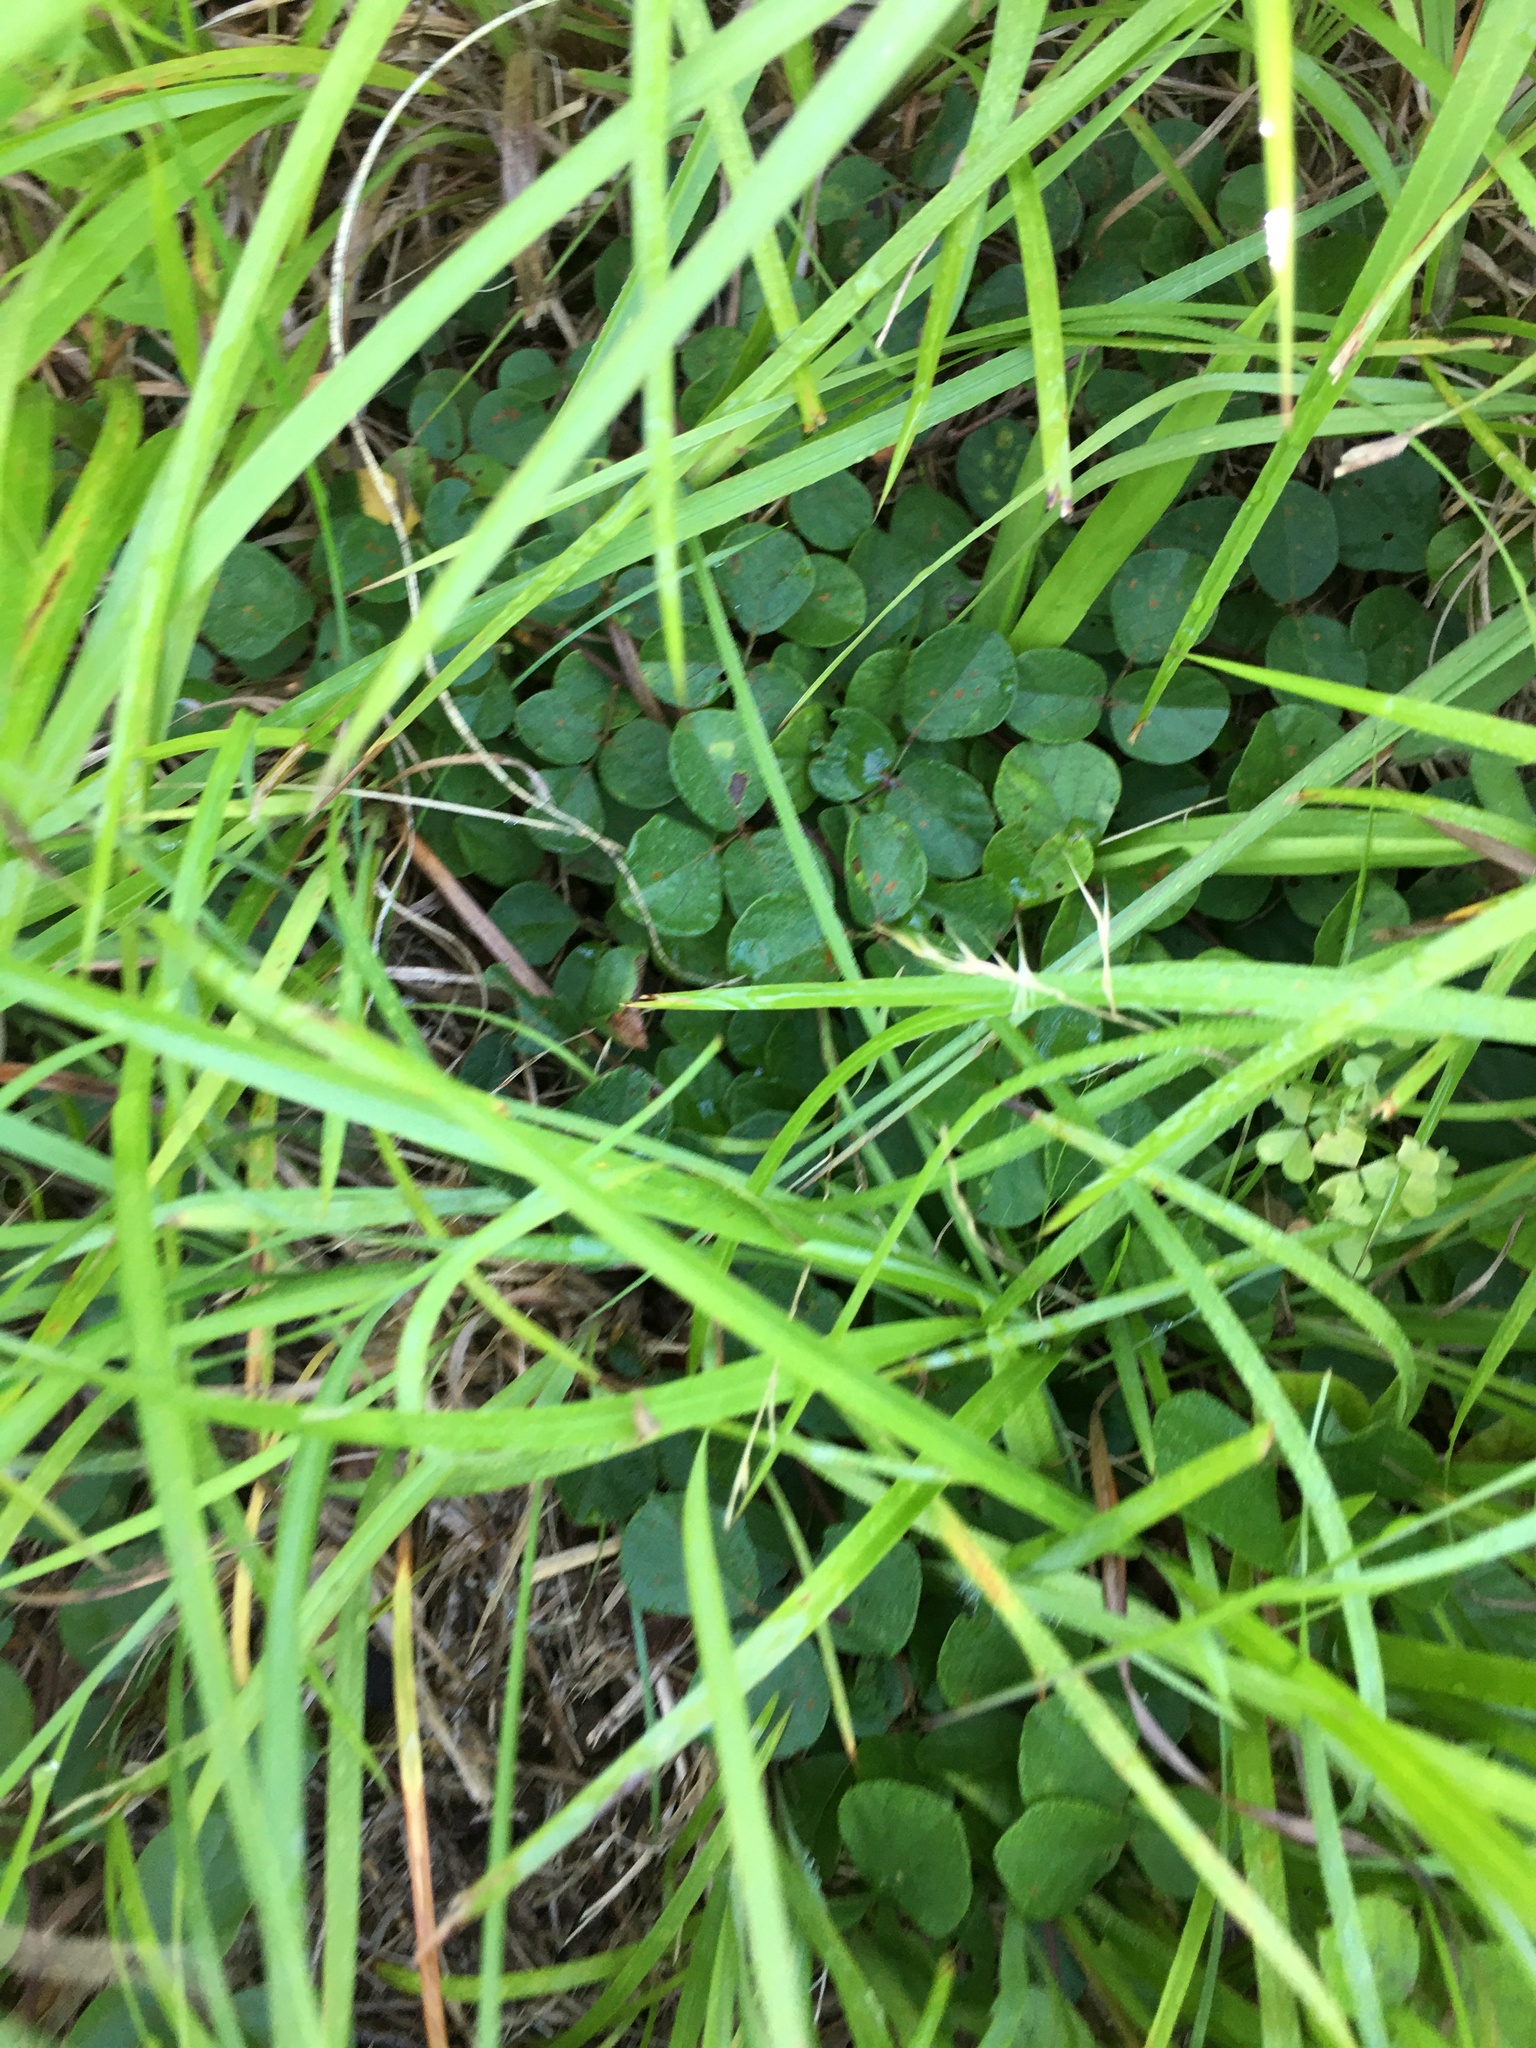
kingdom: Plantae
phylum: Tracheophyta
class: Magnoliopsida
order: Fabales
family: Fabaceae
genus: Desmodium
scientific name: Desmodium lineatum
